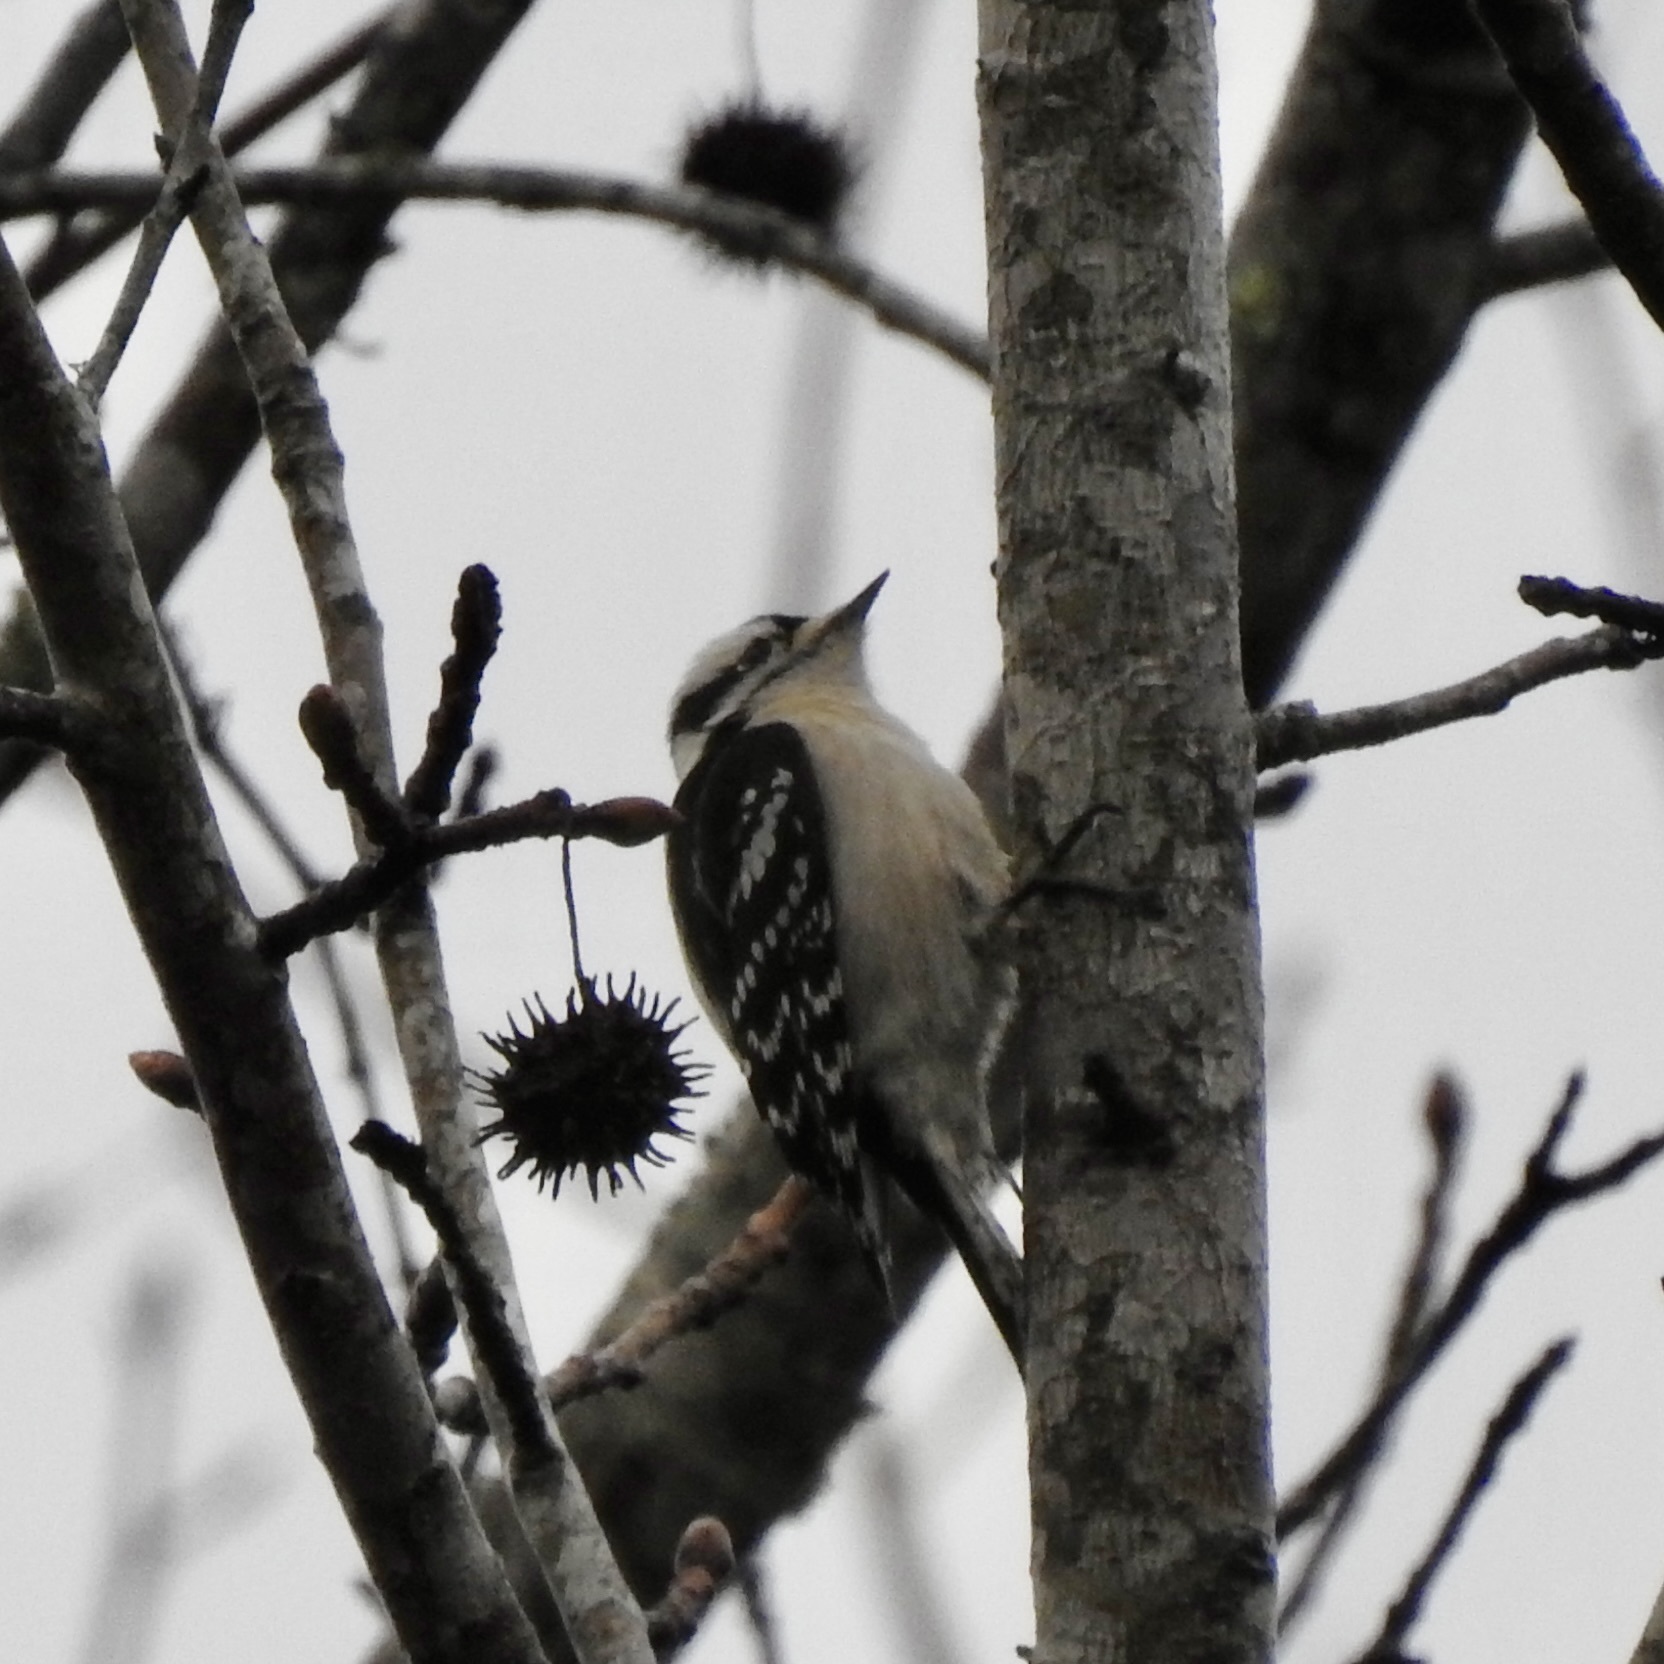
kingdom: Animalia
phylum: Chordata
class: Aves
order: Piciformes
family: Picidae
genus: Dryobates
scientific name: Dryobates pubescens
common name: Downy woodpecker
